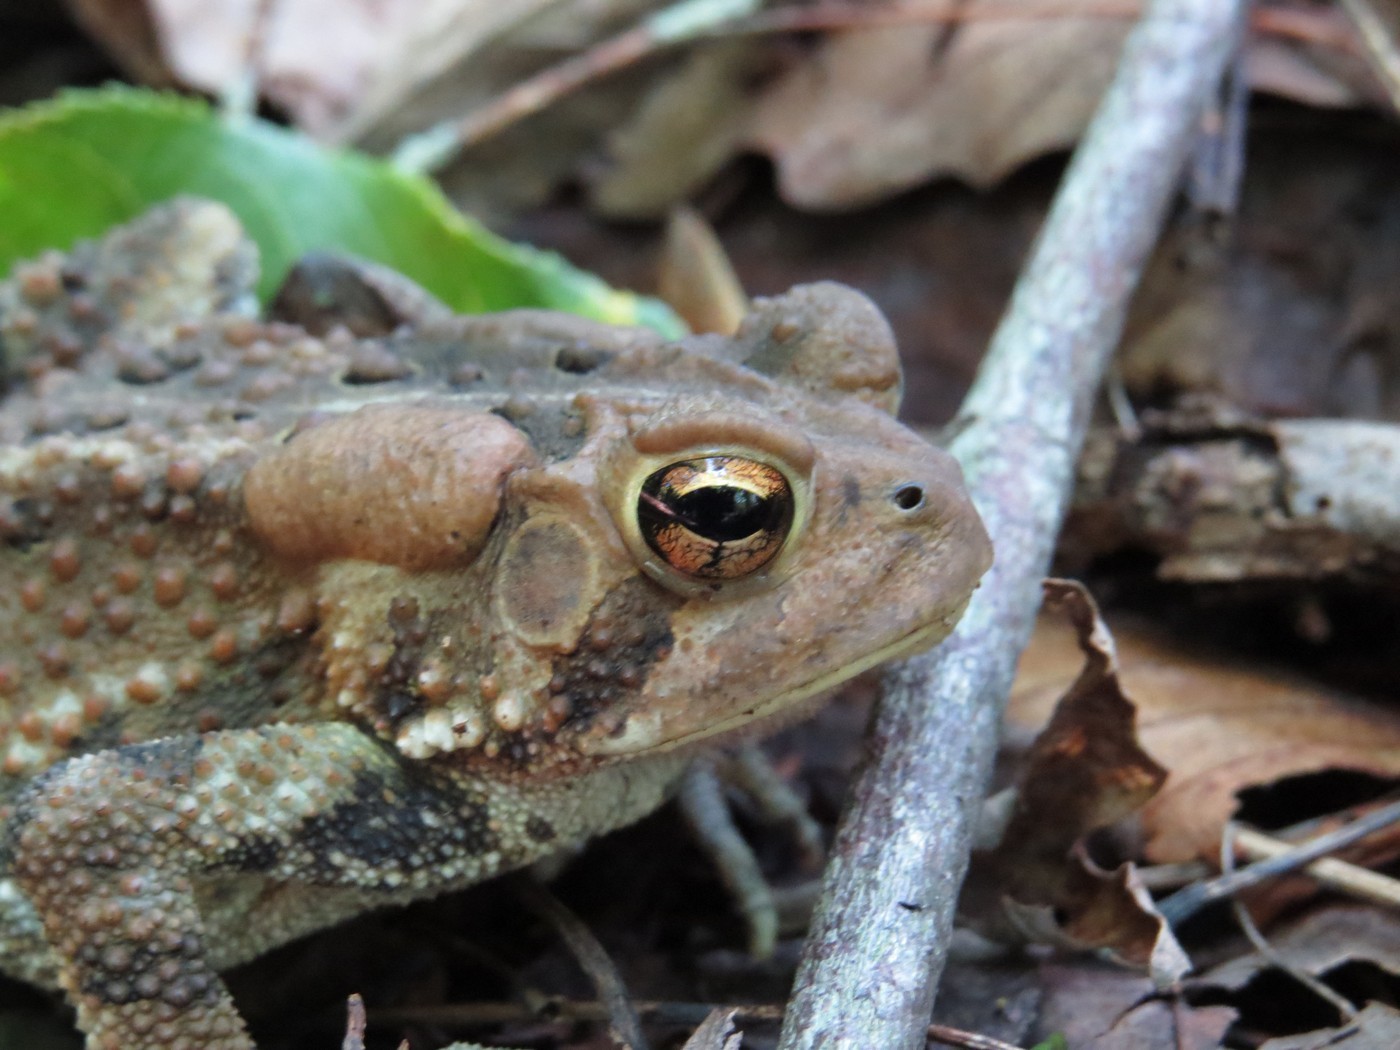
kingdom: Animalia
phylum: Chordata
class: Amphibia
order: Anura
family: Bufonidae
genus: Anaxyrus
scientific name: Anaxyrus americanus
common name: American toad
